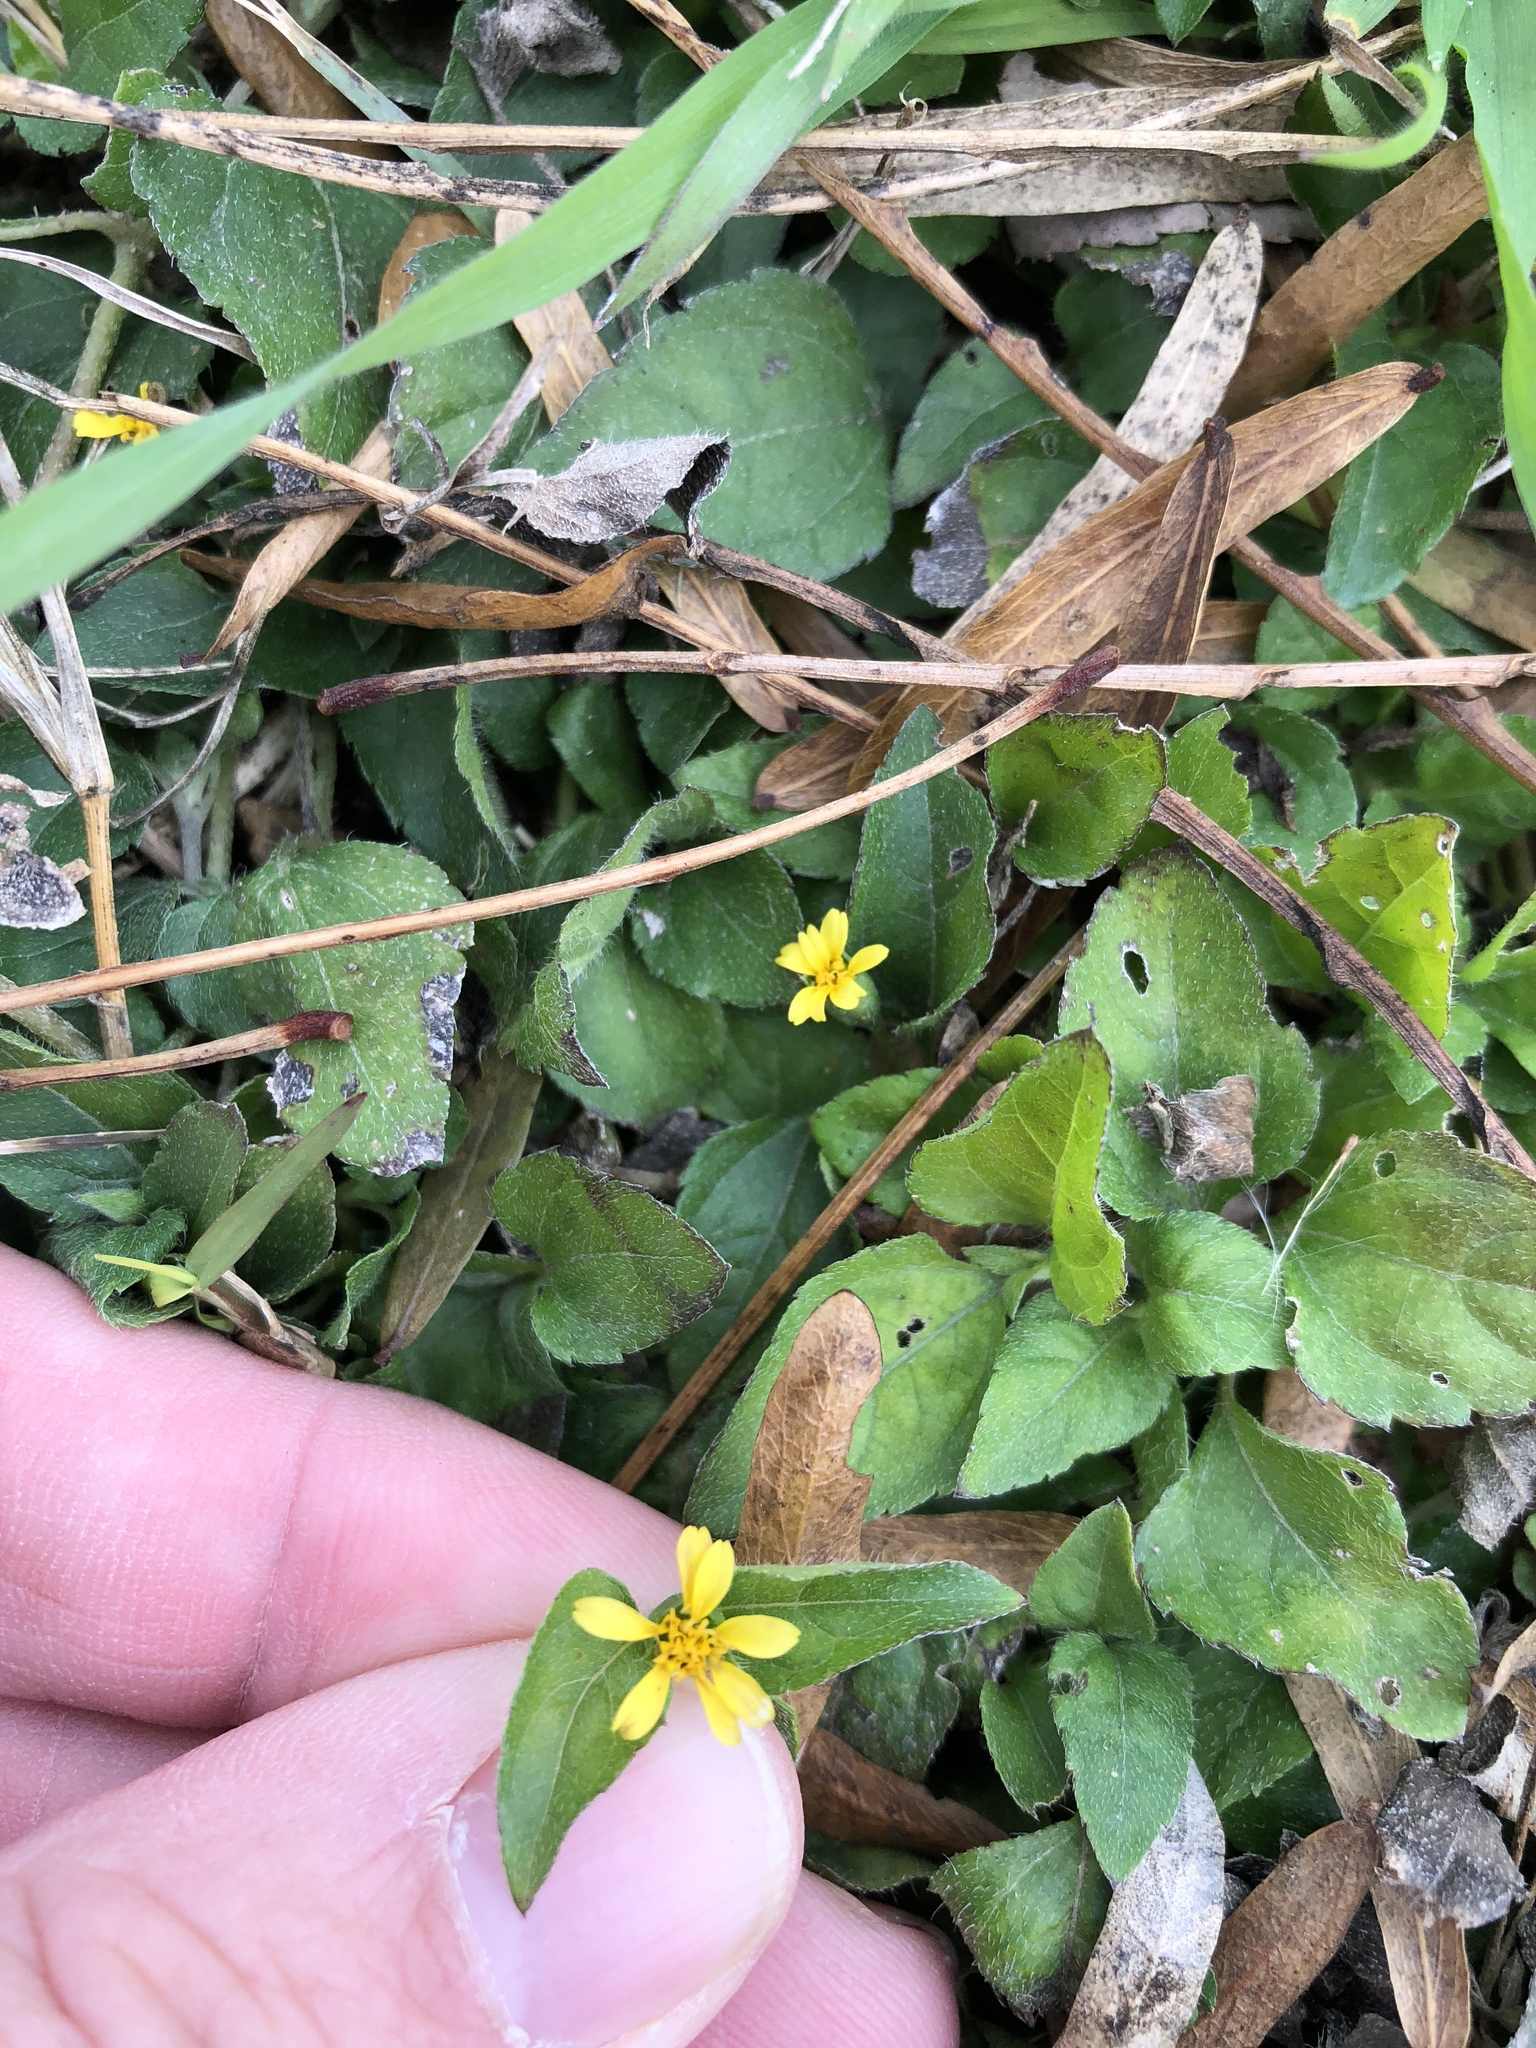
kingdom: Plantae
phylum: Tracheophyta
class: Magnoliopsida
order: Asterales
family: Asteraceae
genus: Calyptocarpus
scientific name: Calyptocarpus vialis
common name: Straggler daisy
